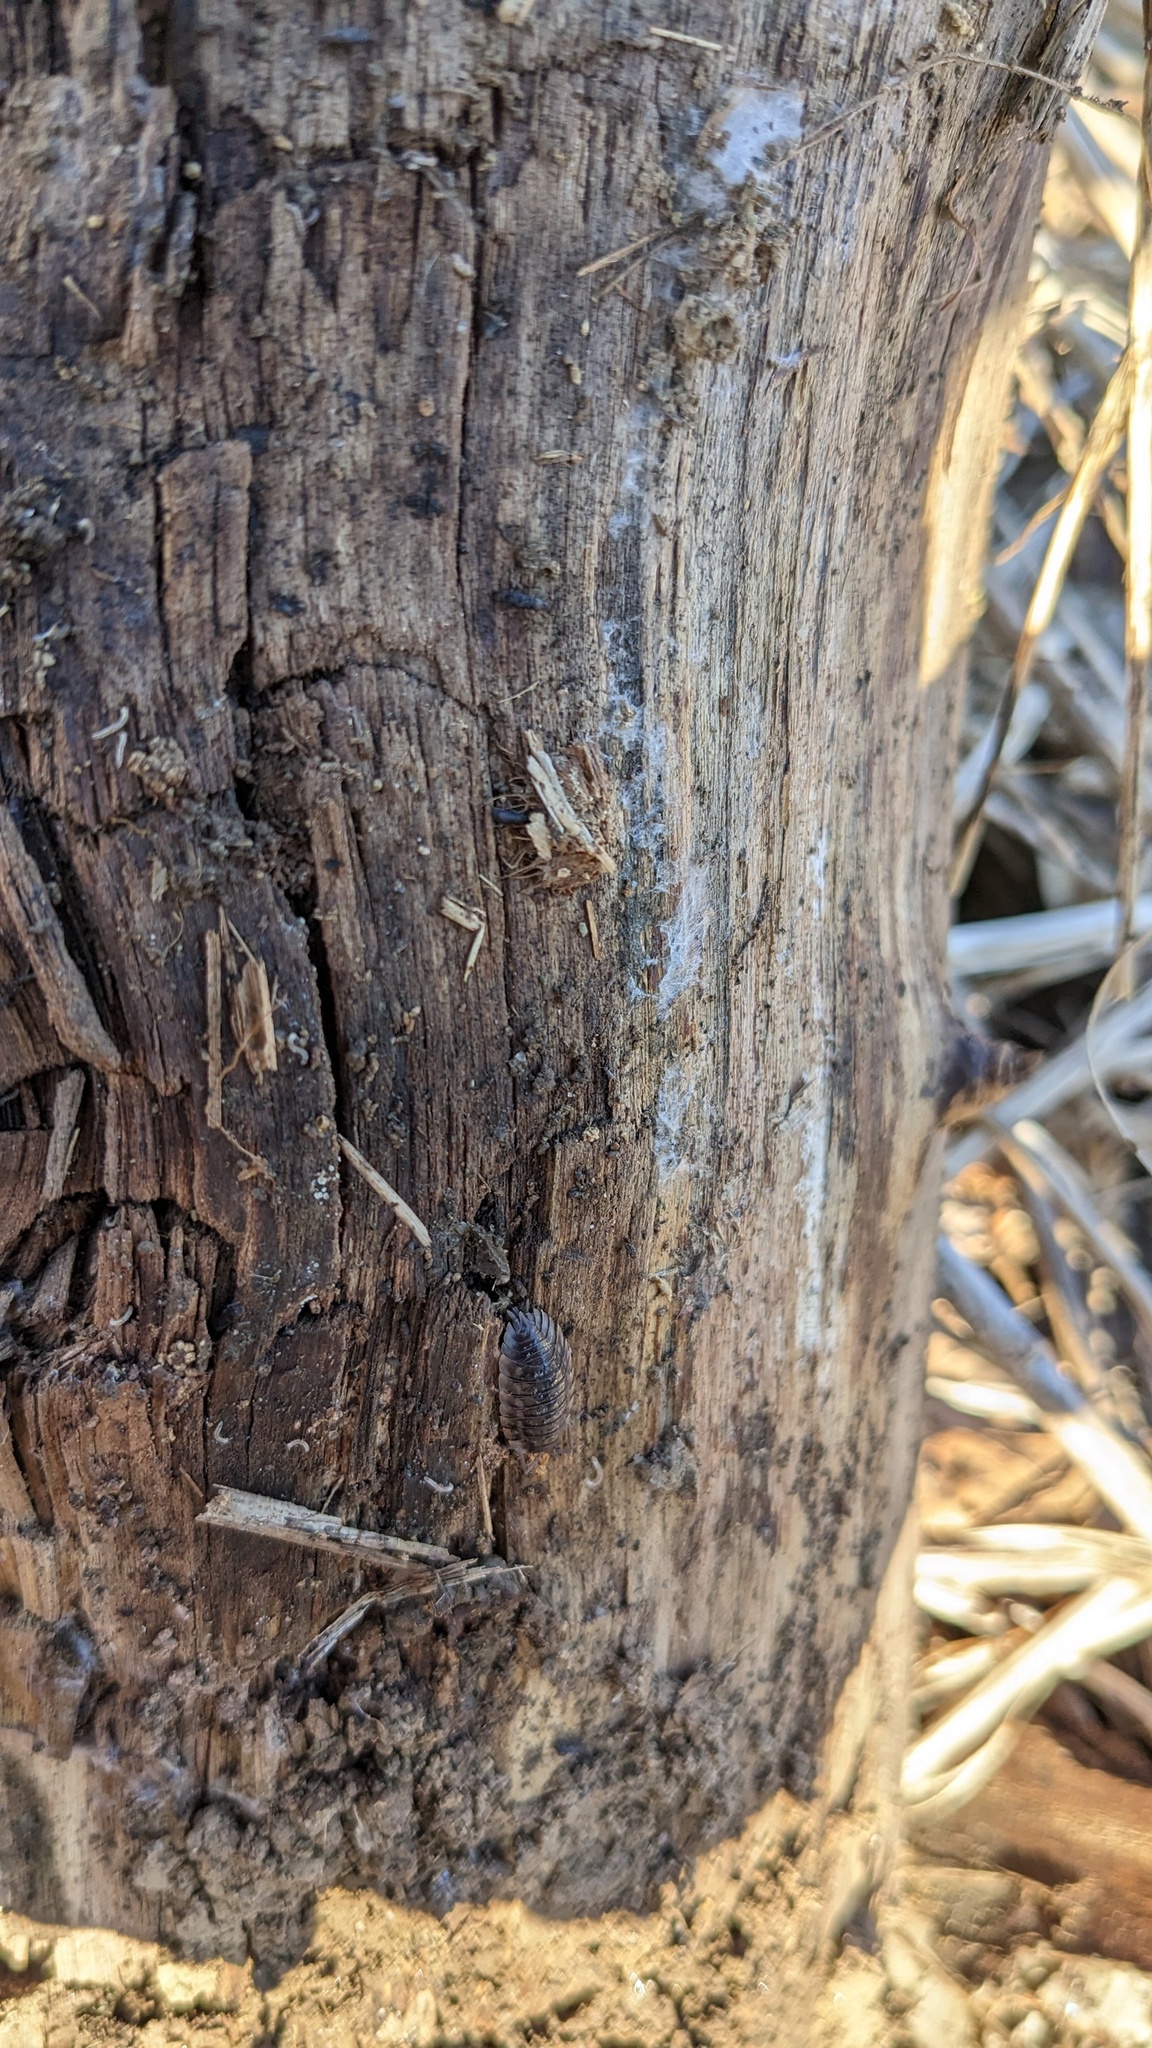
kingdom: Animalia
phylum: Arthropoda
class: Malacostraca
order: Isopoda
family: Oniscidae
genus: Oniscus
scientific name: Oniscus asellus
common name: Common shiny woodlouse
